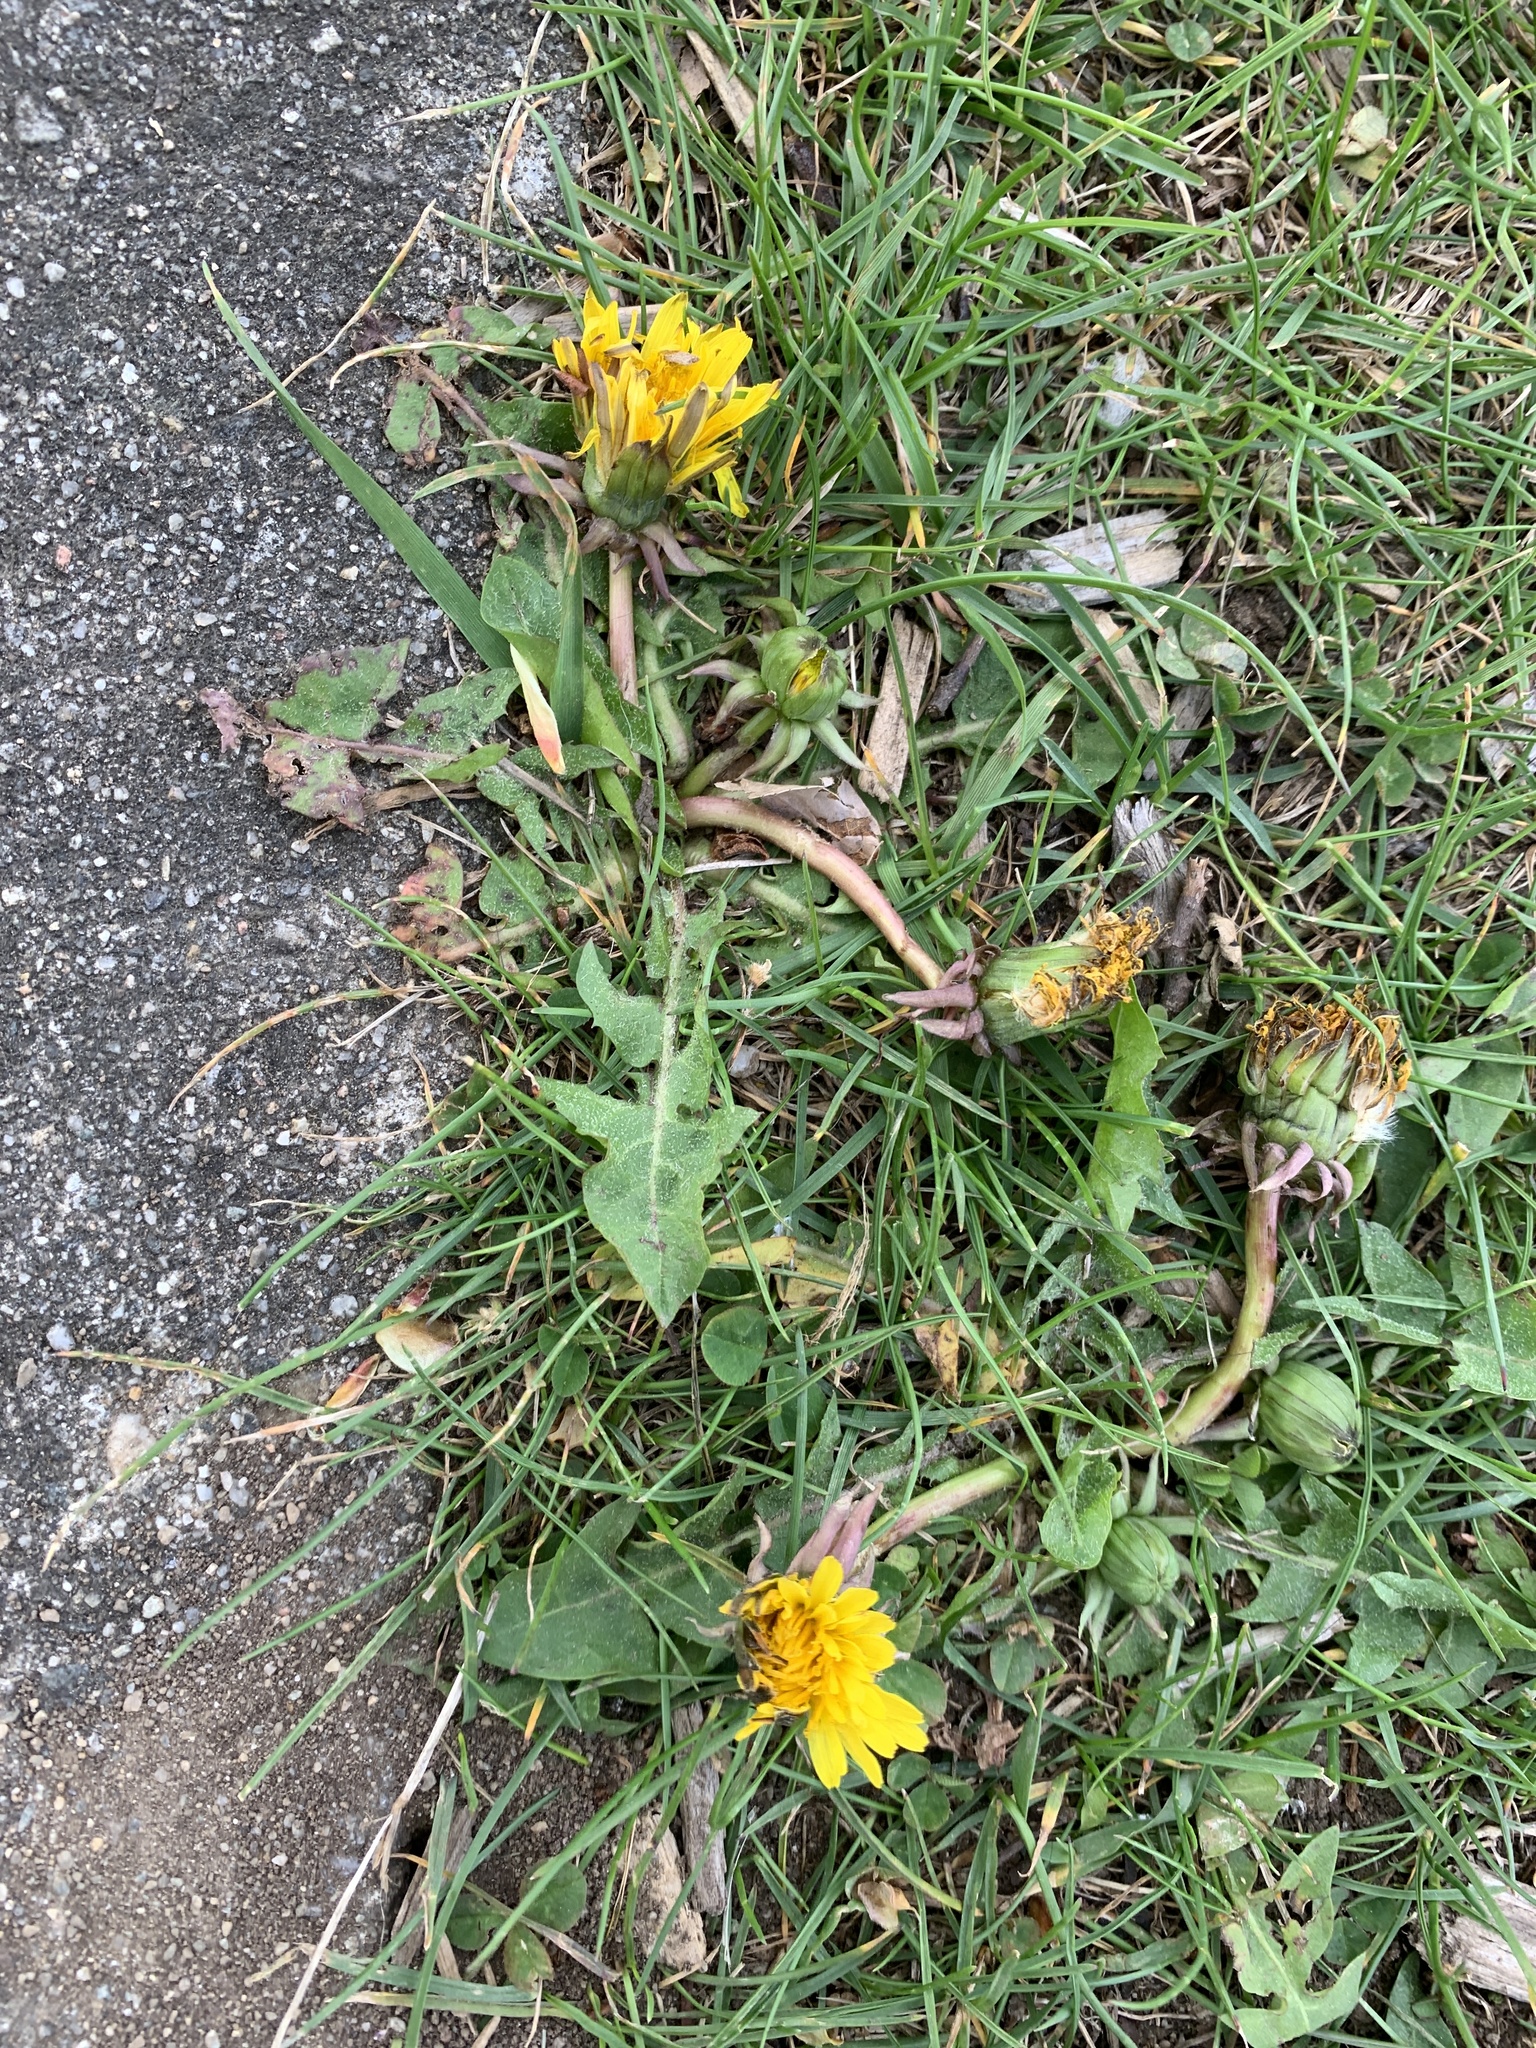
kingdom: Plantae
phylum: Tracheophyta
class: Magnoliopsida
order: Asterales
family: Asteraceae
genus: Taraxacum
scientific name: Taraxacum
